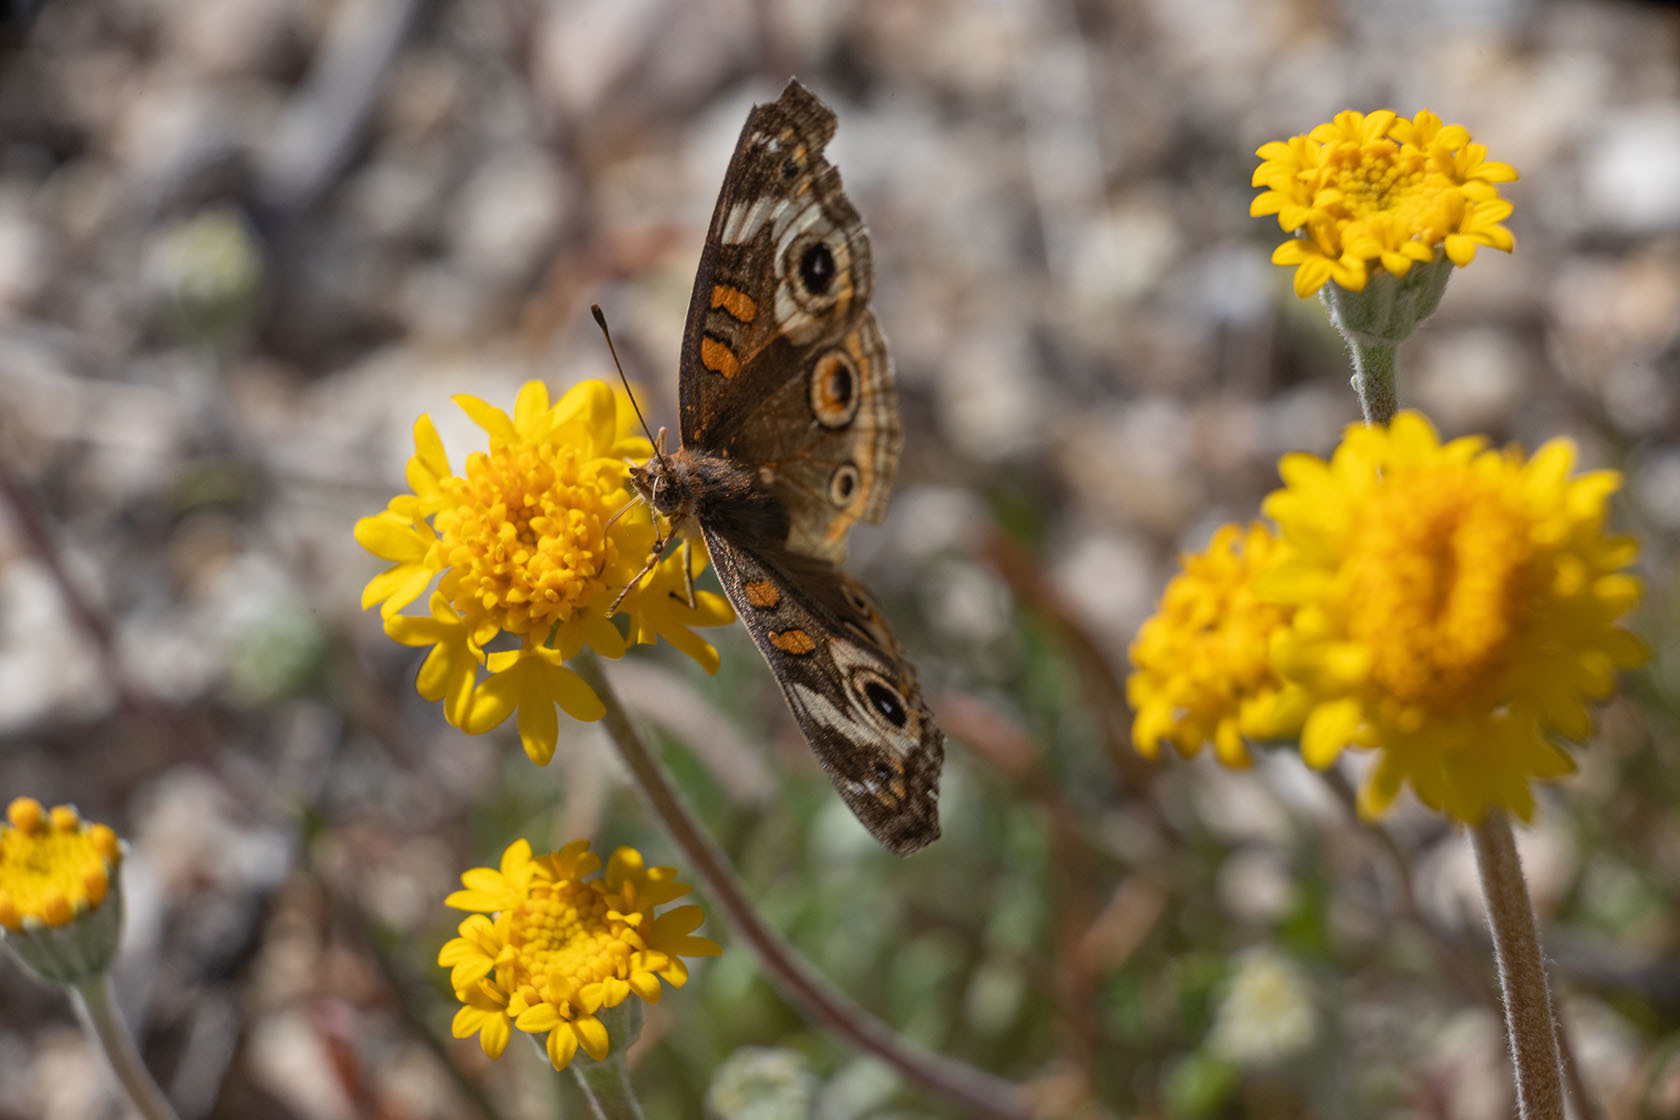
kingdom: Animalia
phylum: Arthropoda
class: Insecta
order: Lepidoptera
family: Nymphalidae
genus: Junonia
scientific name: Junonia grisea
